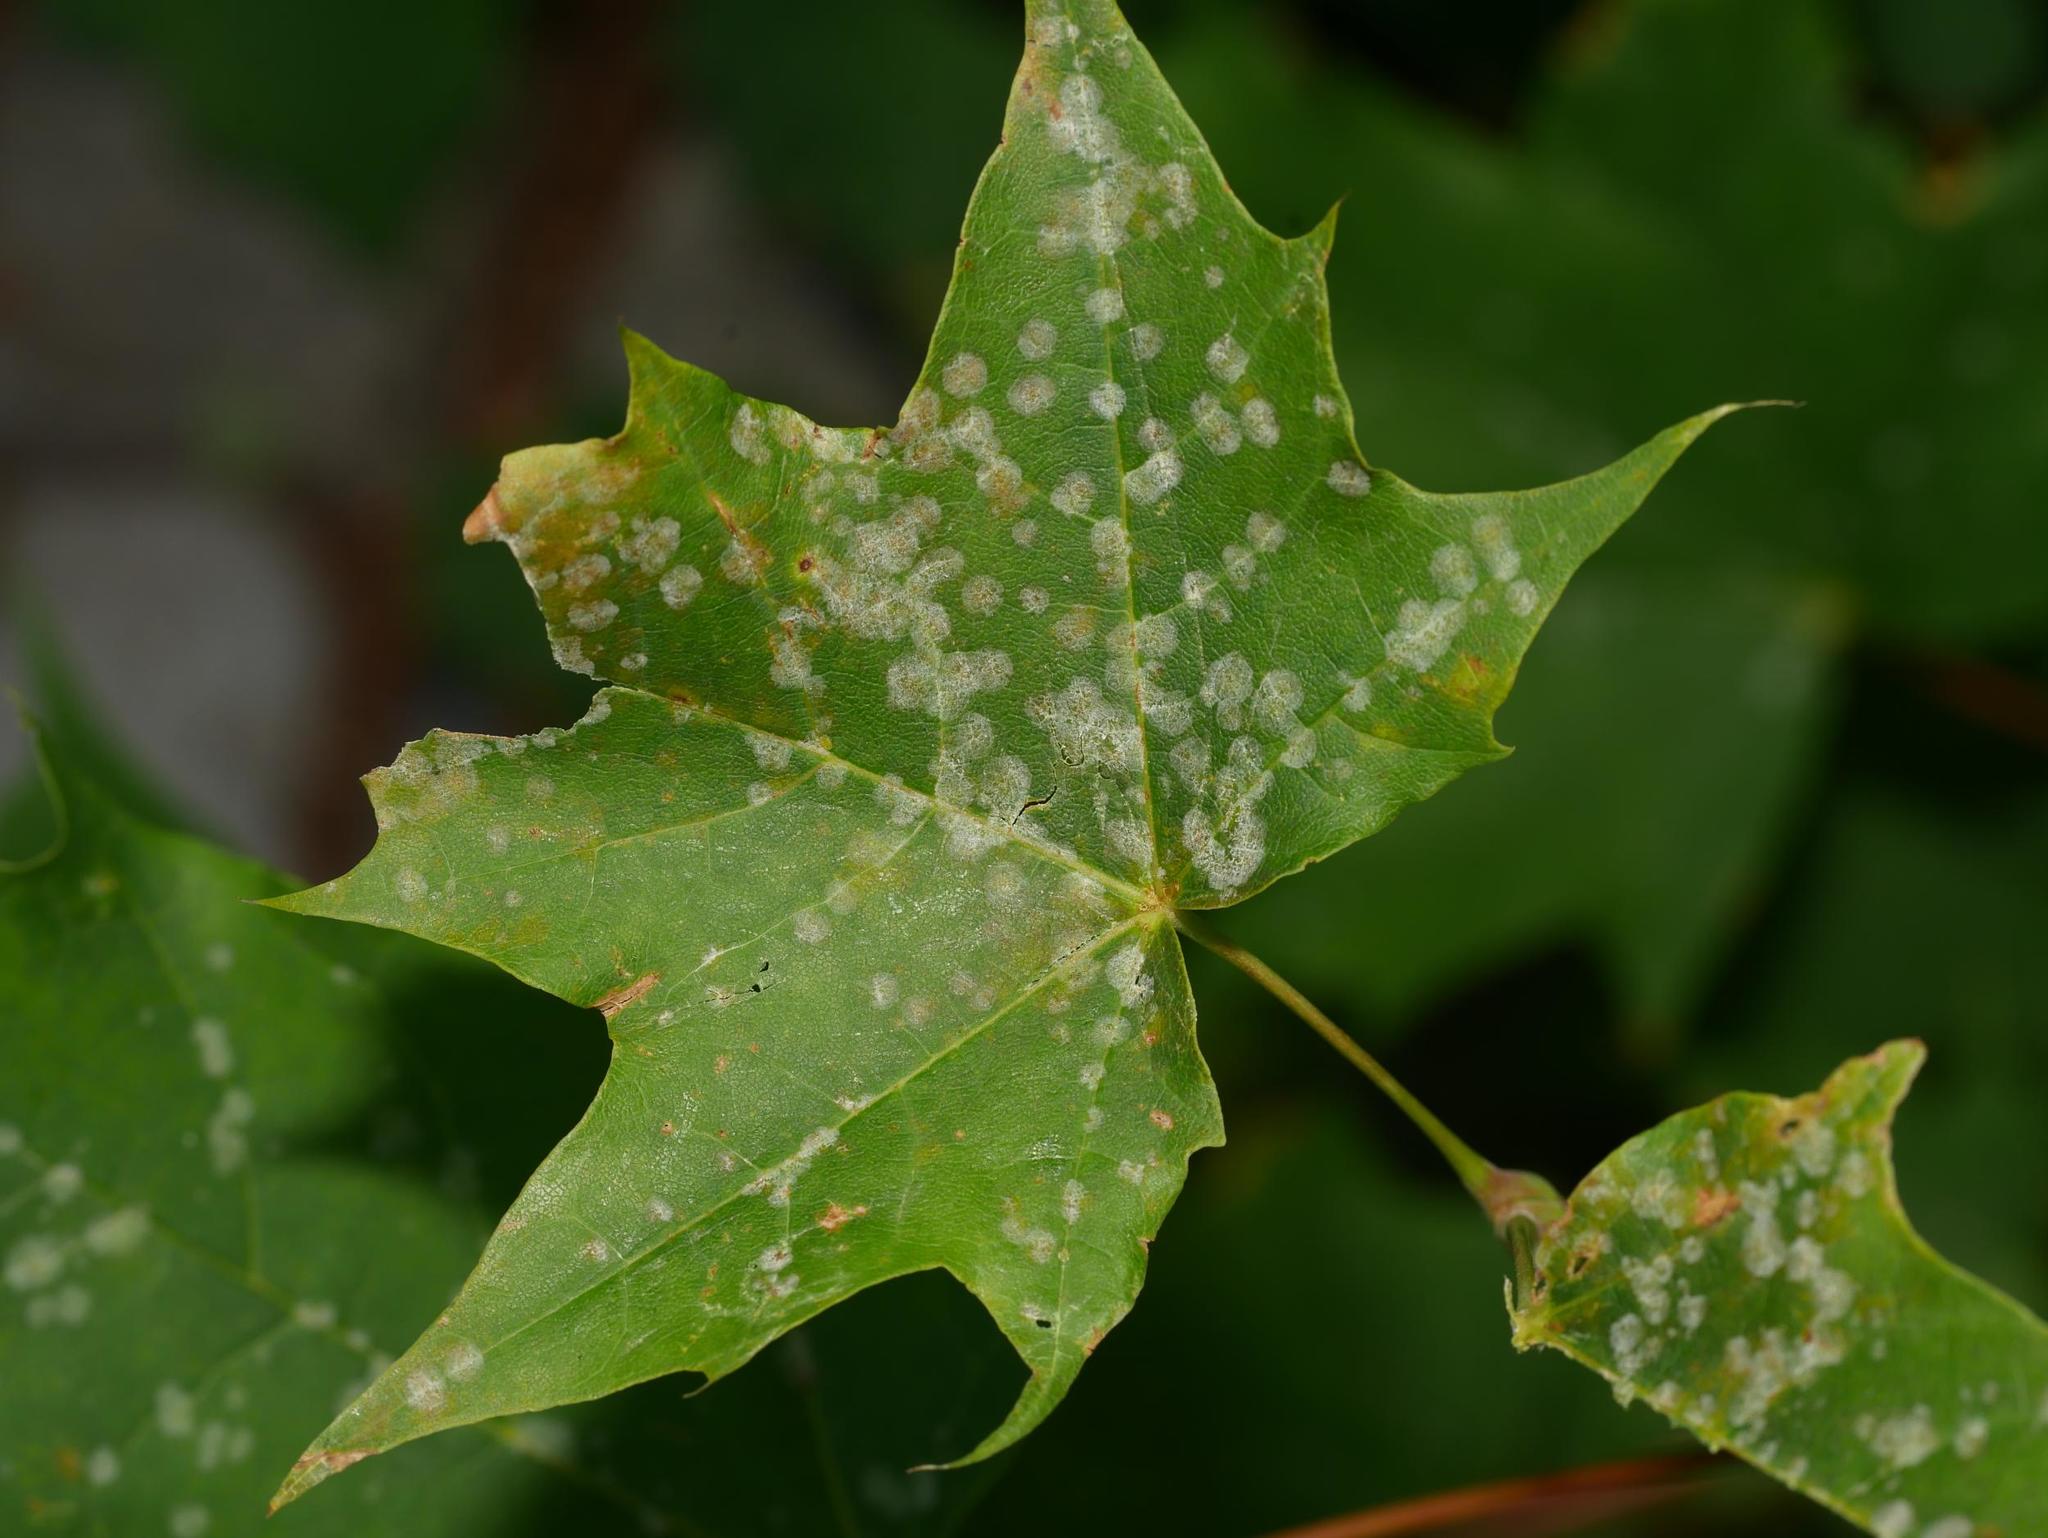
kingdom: Fungi
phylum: Ascomycota
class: Leotiomycetes
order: Helotiales
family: Erysiphaceae
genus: Sawadaea
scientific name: Sawadaea tulasnei
